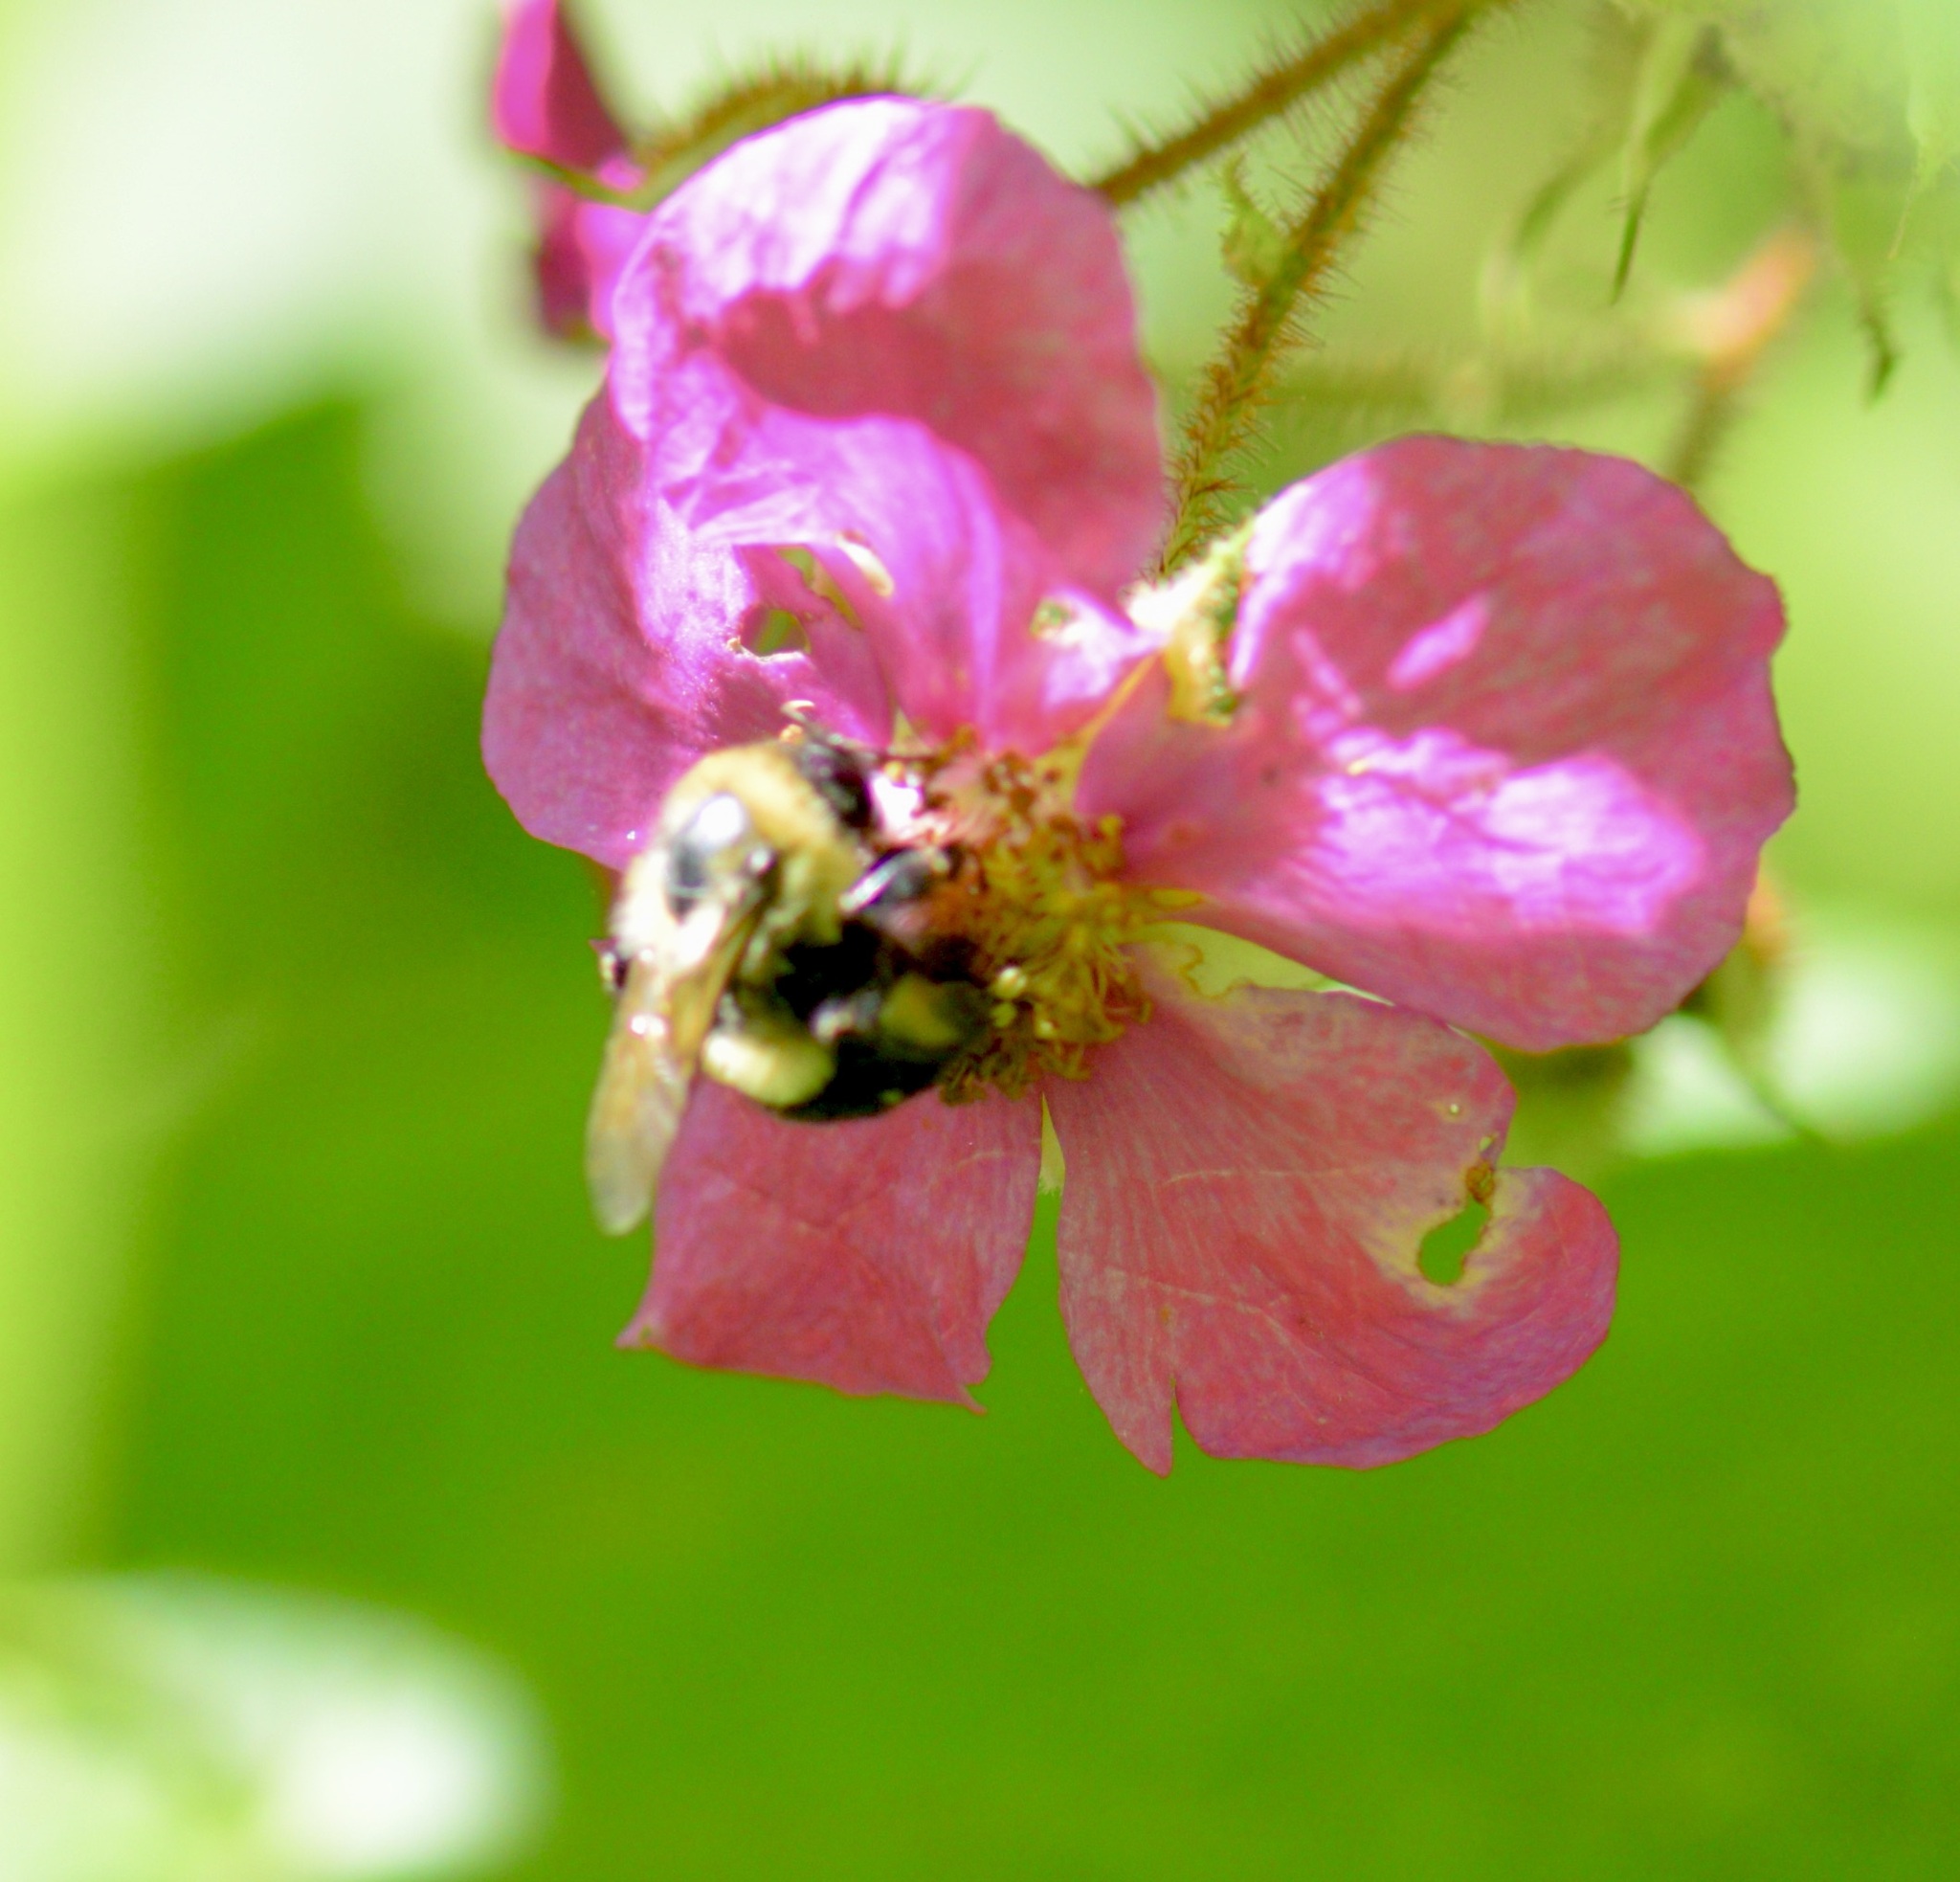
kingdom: Animalia
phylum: Arthropoda
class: Insecta
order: Hymenoptera
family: Apidae
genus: Bombus
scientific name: Bombus impatiens
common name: Common eastern bumble bee
